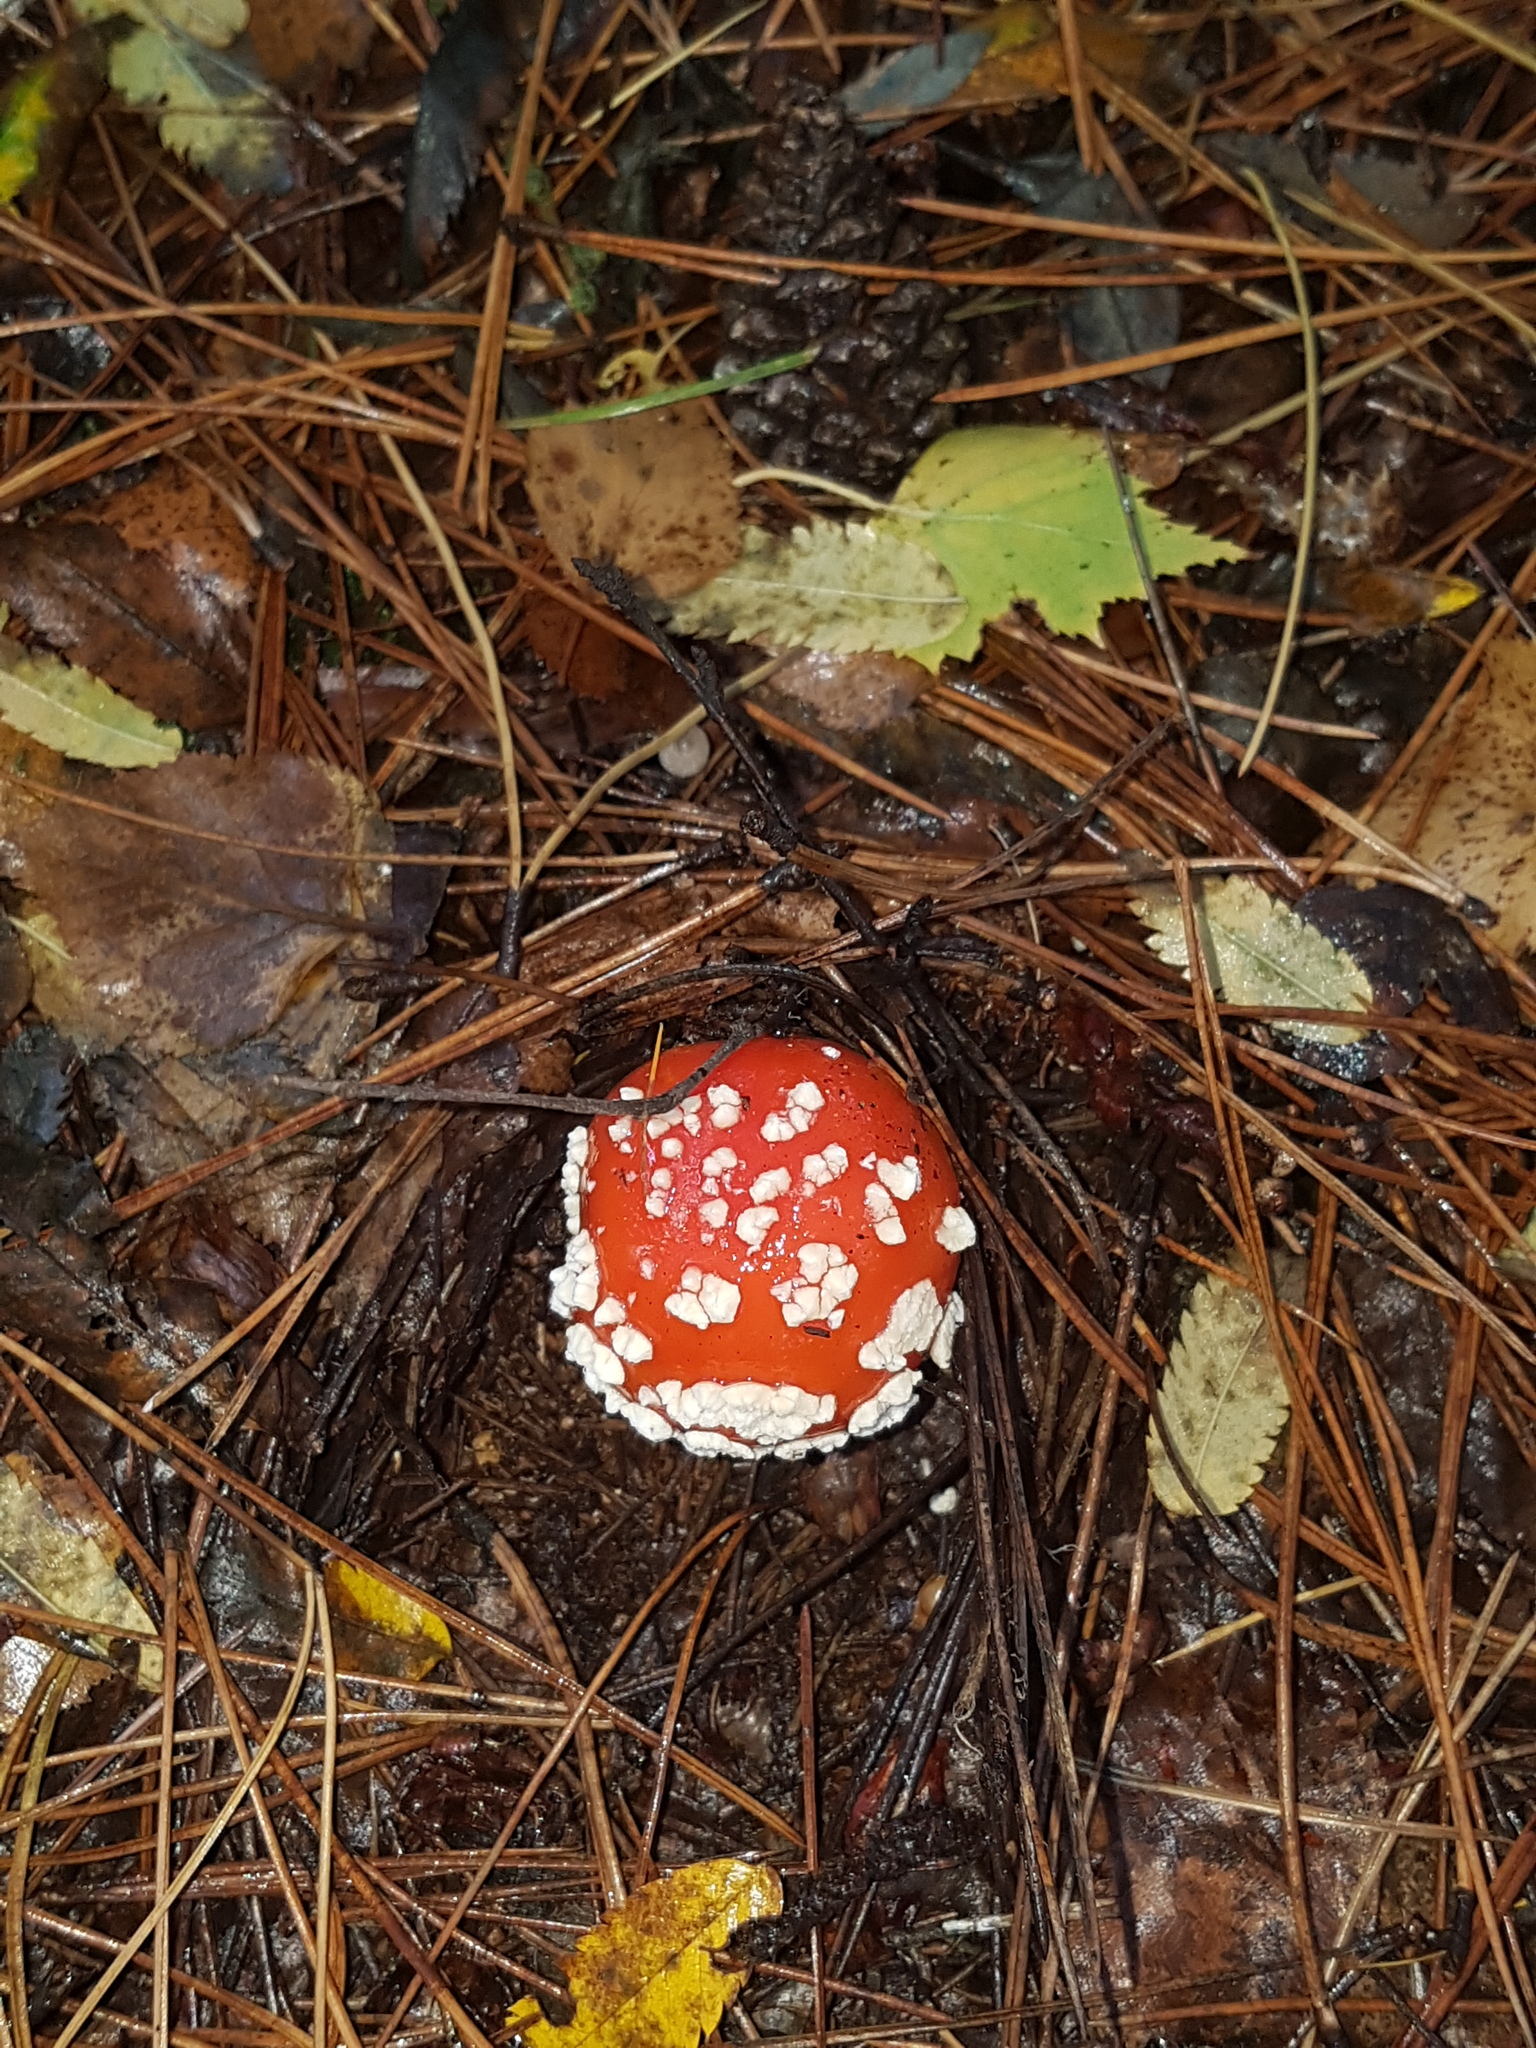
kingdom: Fungi
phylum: Basidiomycota
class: Agaricomycetes
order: Agaricales
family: Amanitaceae
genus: Amanita
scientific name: Amanita muscaria
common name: Fly agaric
